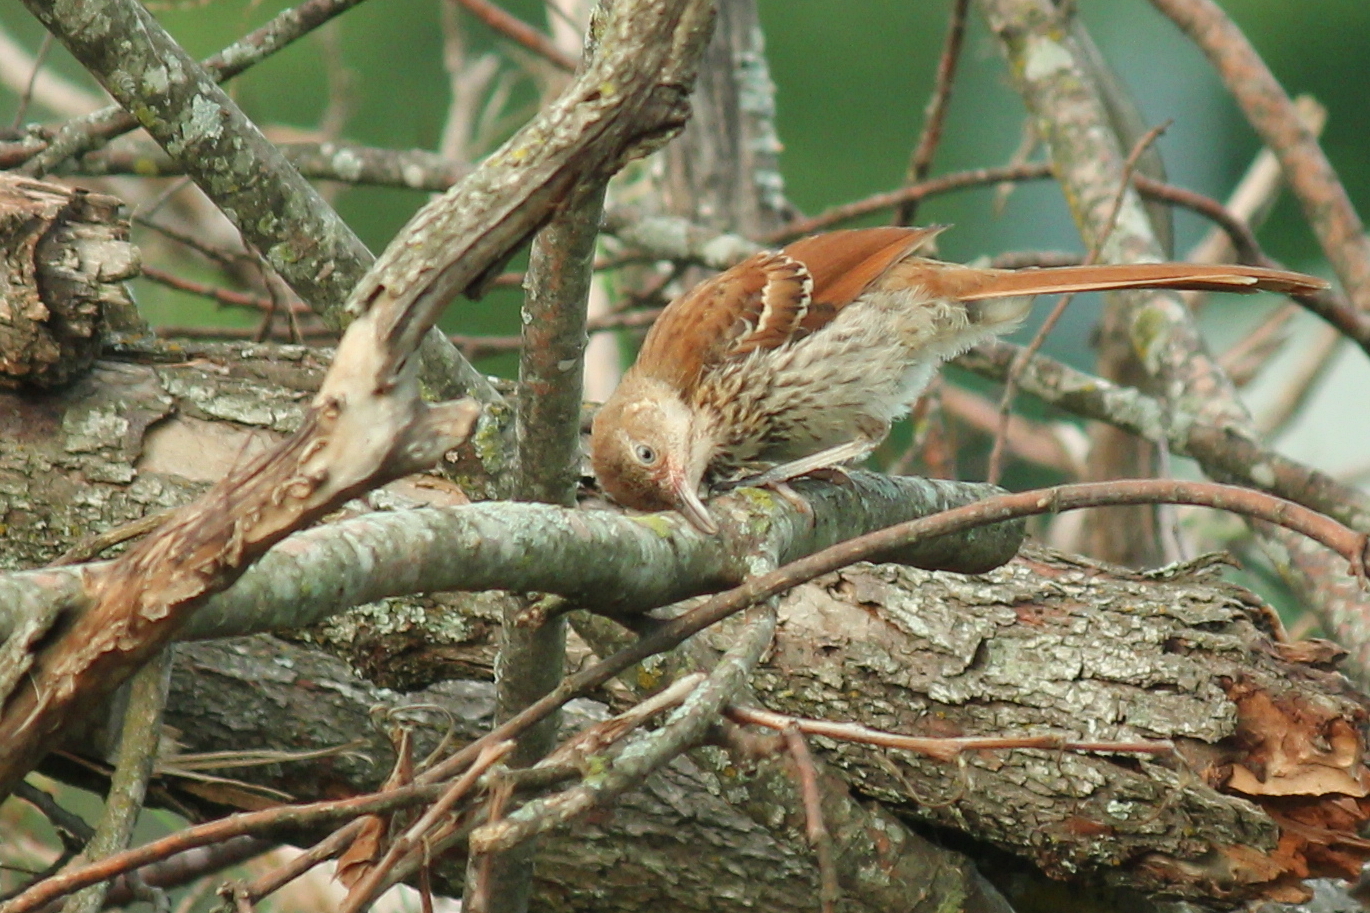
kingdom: Animalia
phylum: Chordata
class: Aves
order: Passeriformes
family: Mimidae
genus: Toxostoma
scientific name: Toxostoma rufum
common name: Brown thrasher
